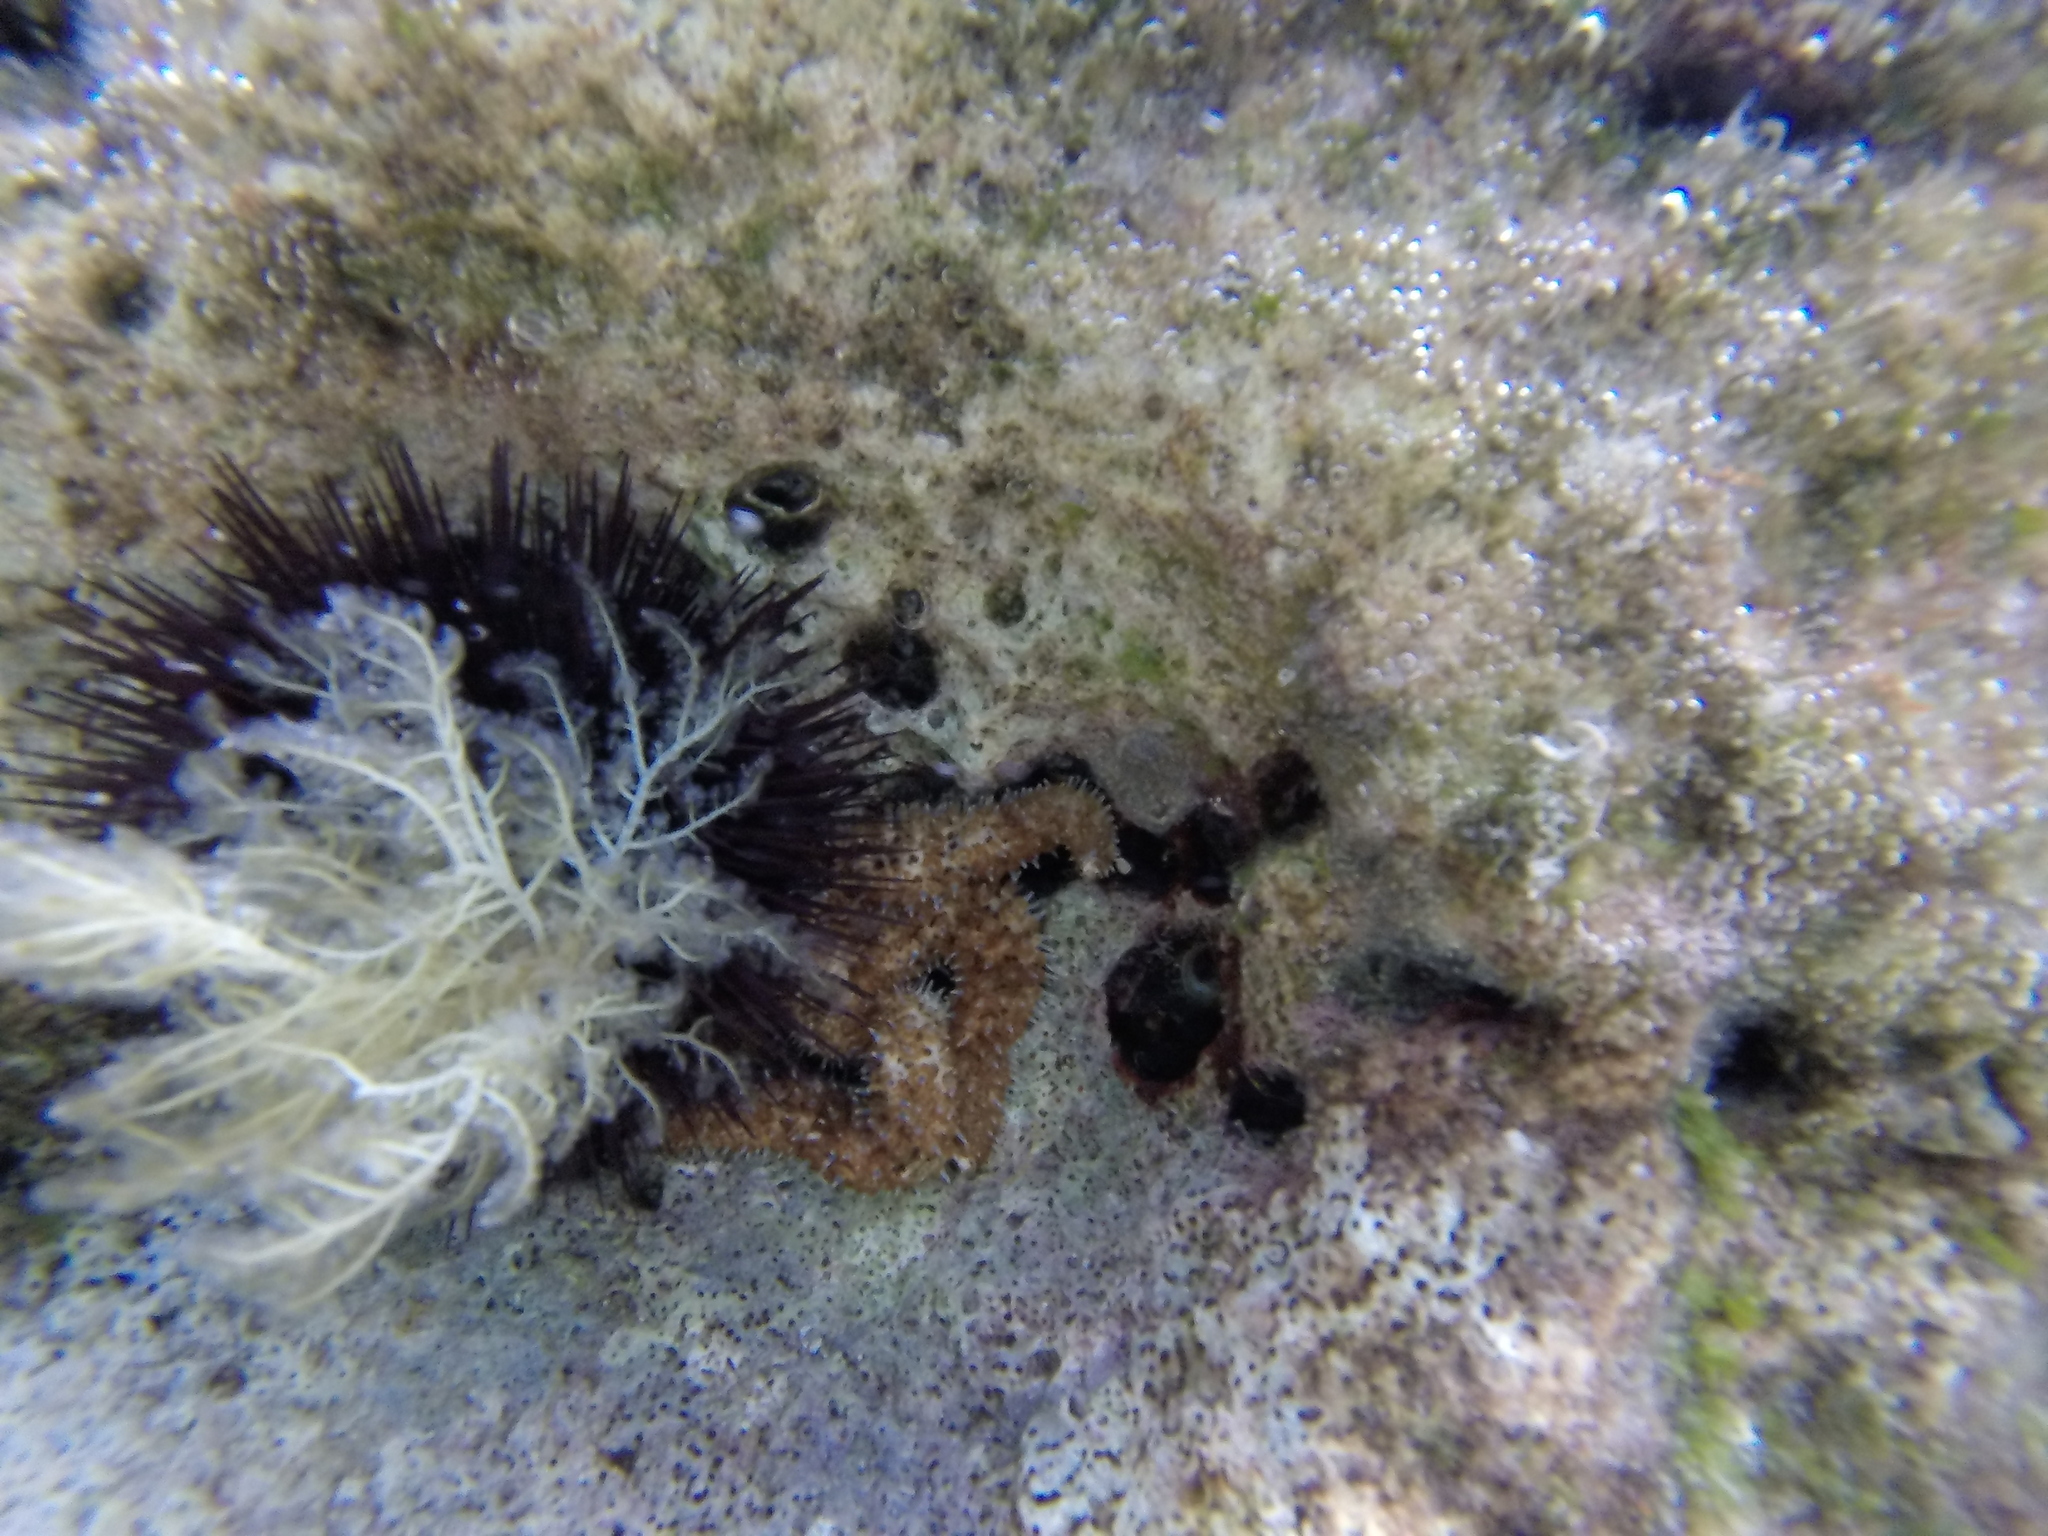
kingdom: Animalia
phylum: Echinodermata
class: Asteroidea
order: Forcipulatida
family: Asteriidae
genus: Coscinasterias
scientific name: Coscinasterias tenuispina
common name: Blue spiny starfish
